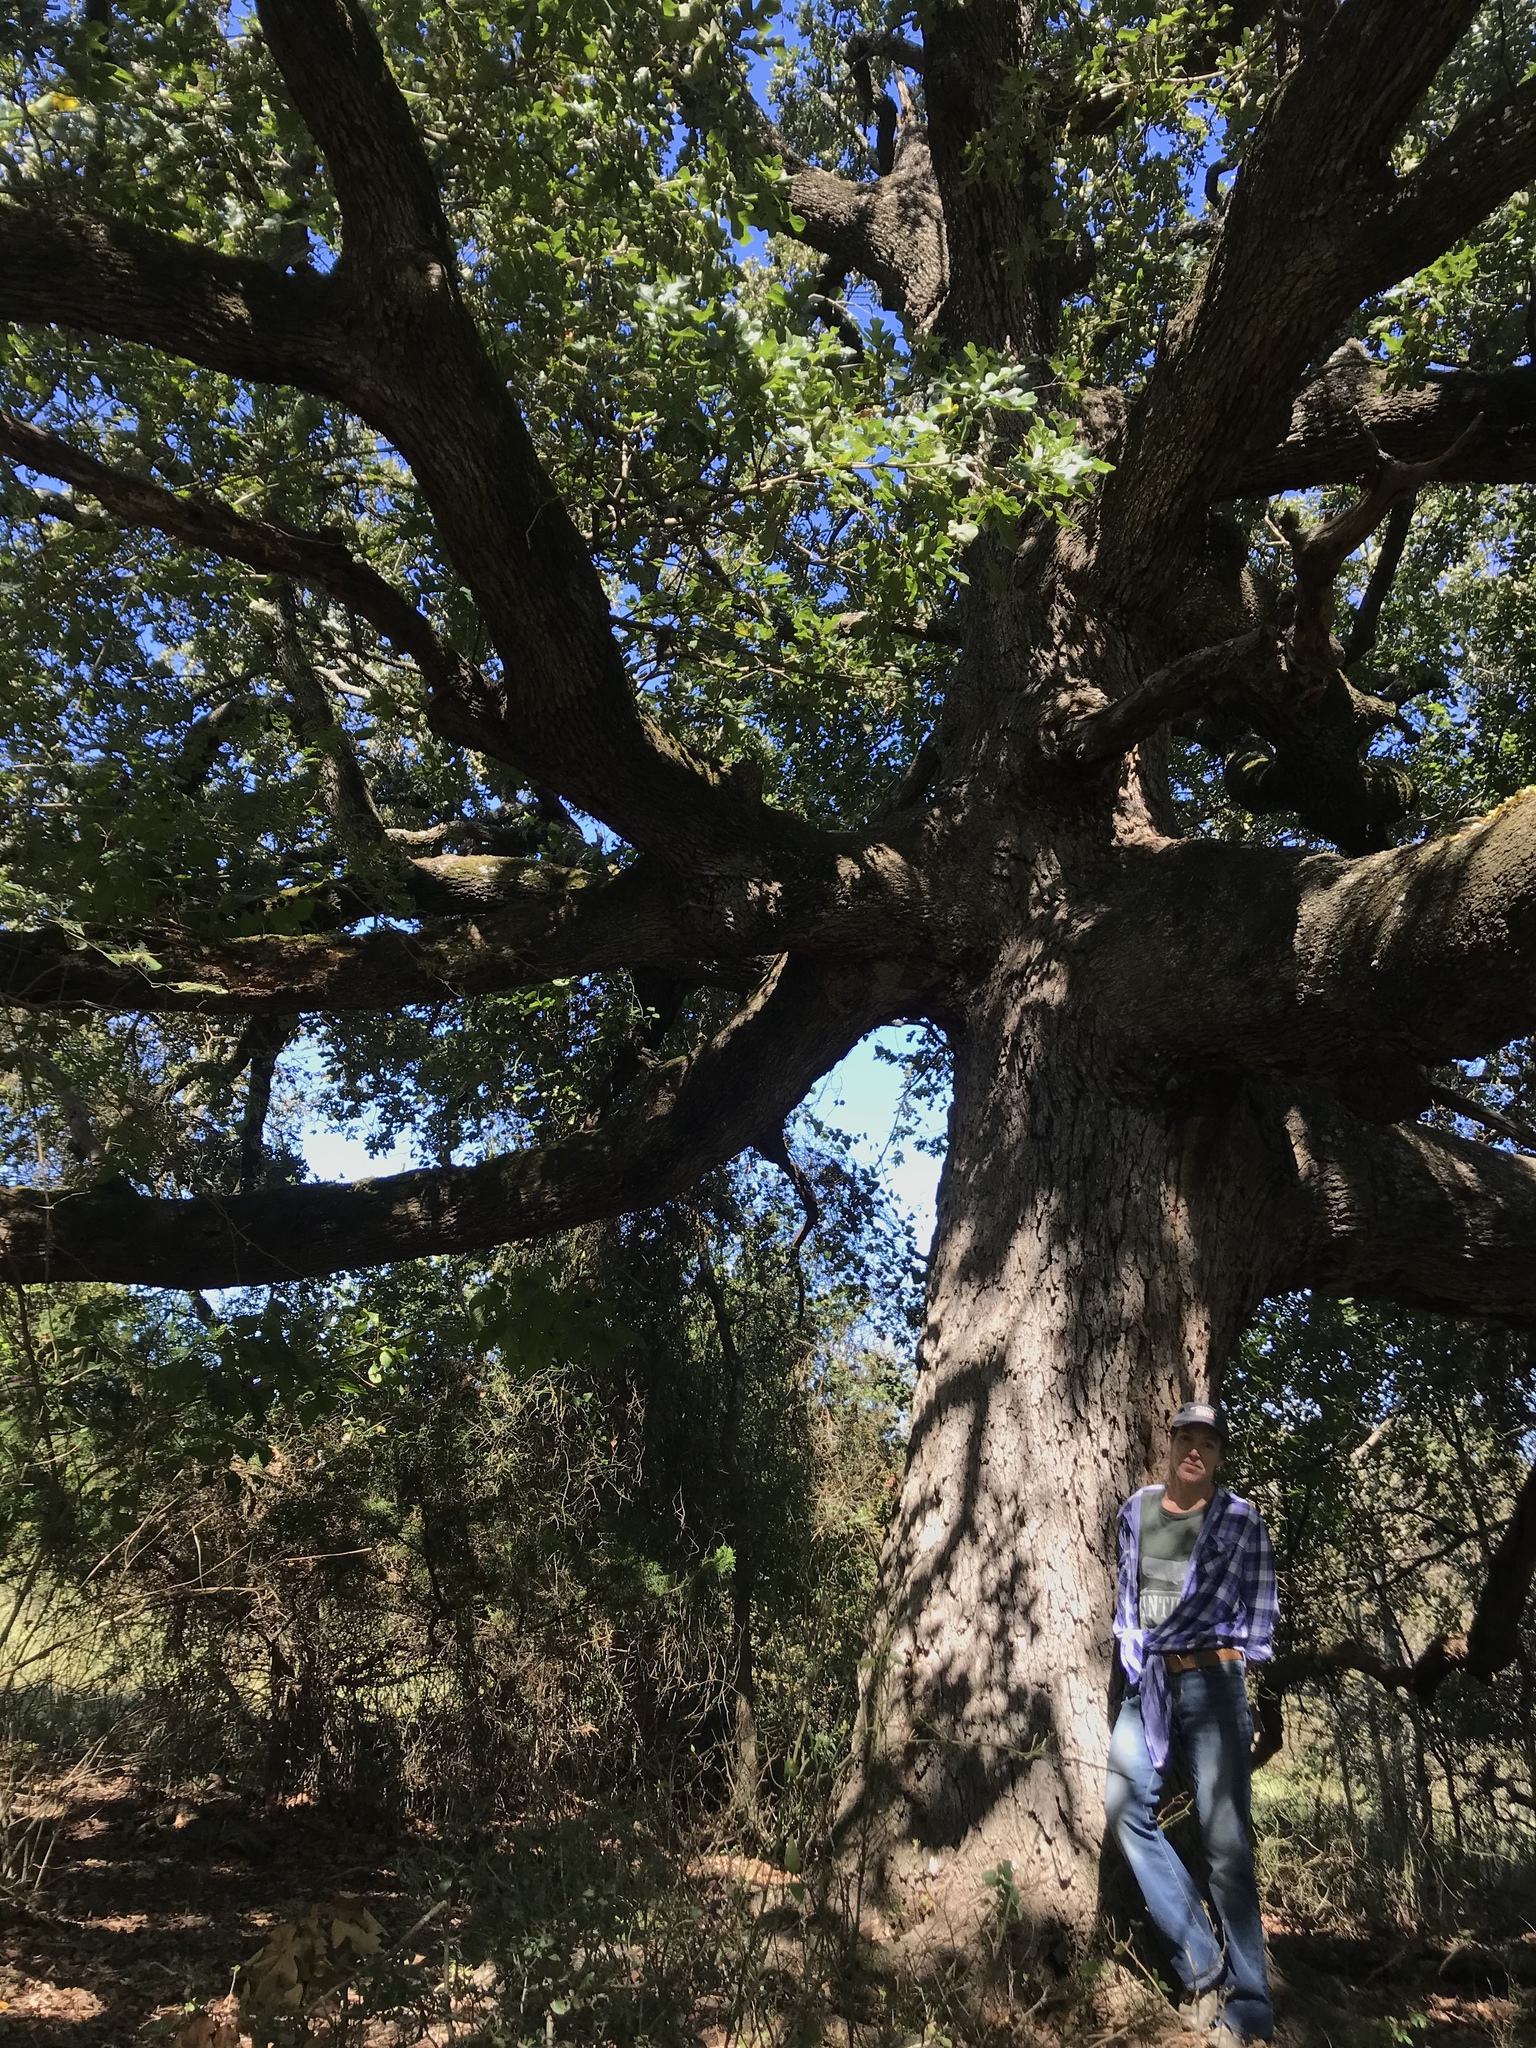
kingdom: Plantae
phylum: Tracheophyta
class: Magnoliopsida
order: Fagales
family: Fagaceae
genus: Quercus
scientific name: Quercus stellata
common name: Post oak
